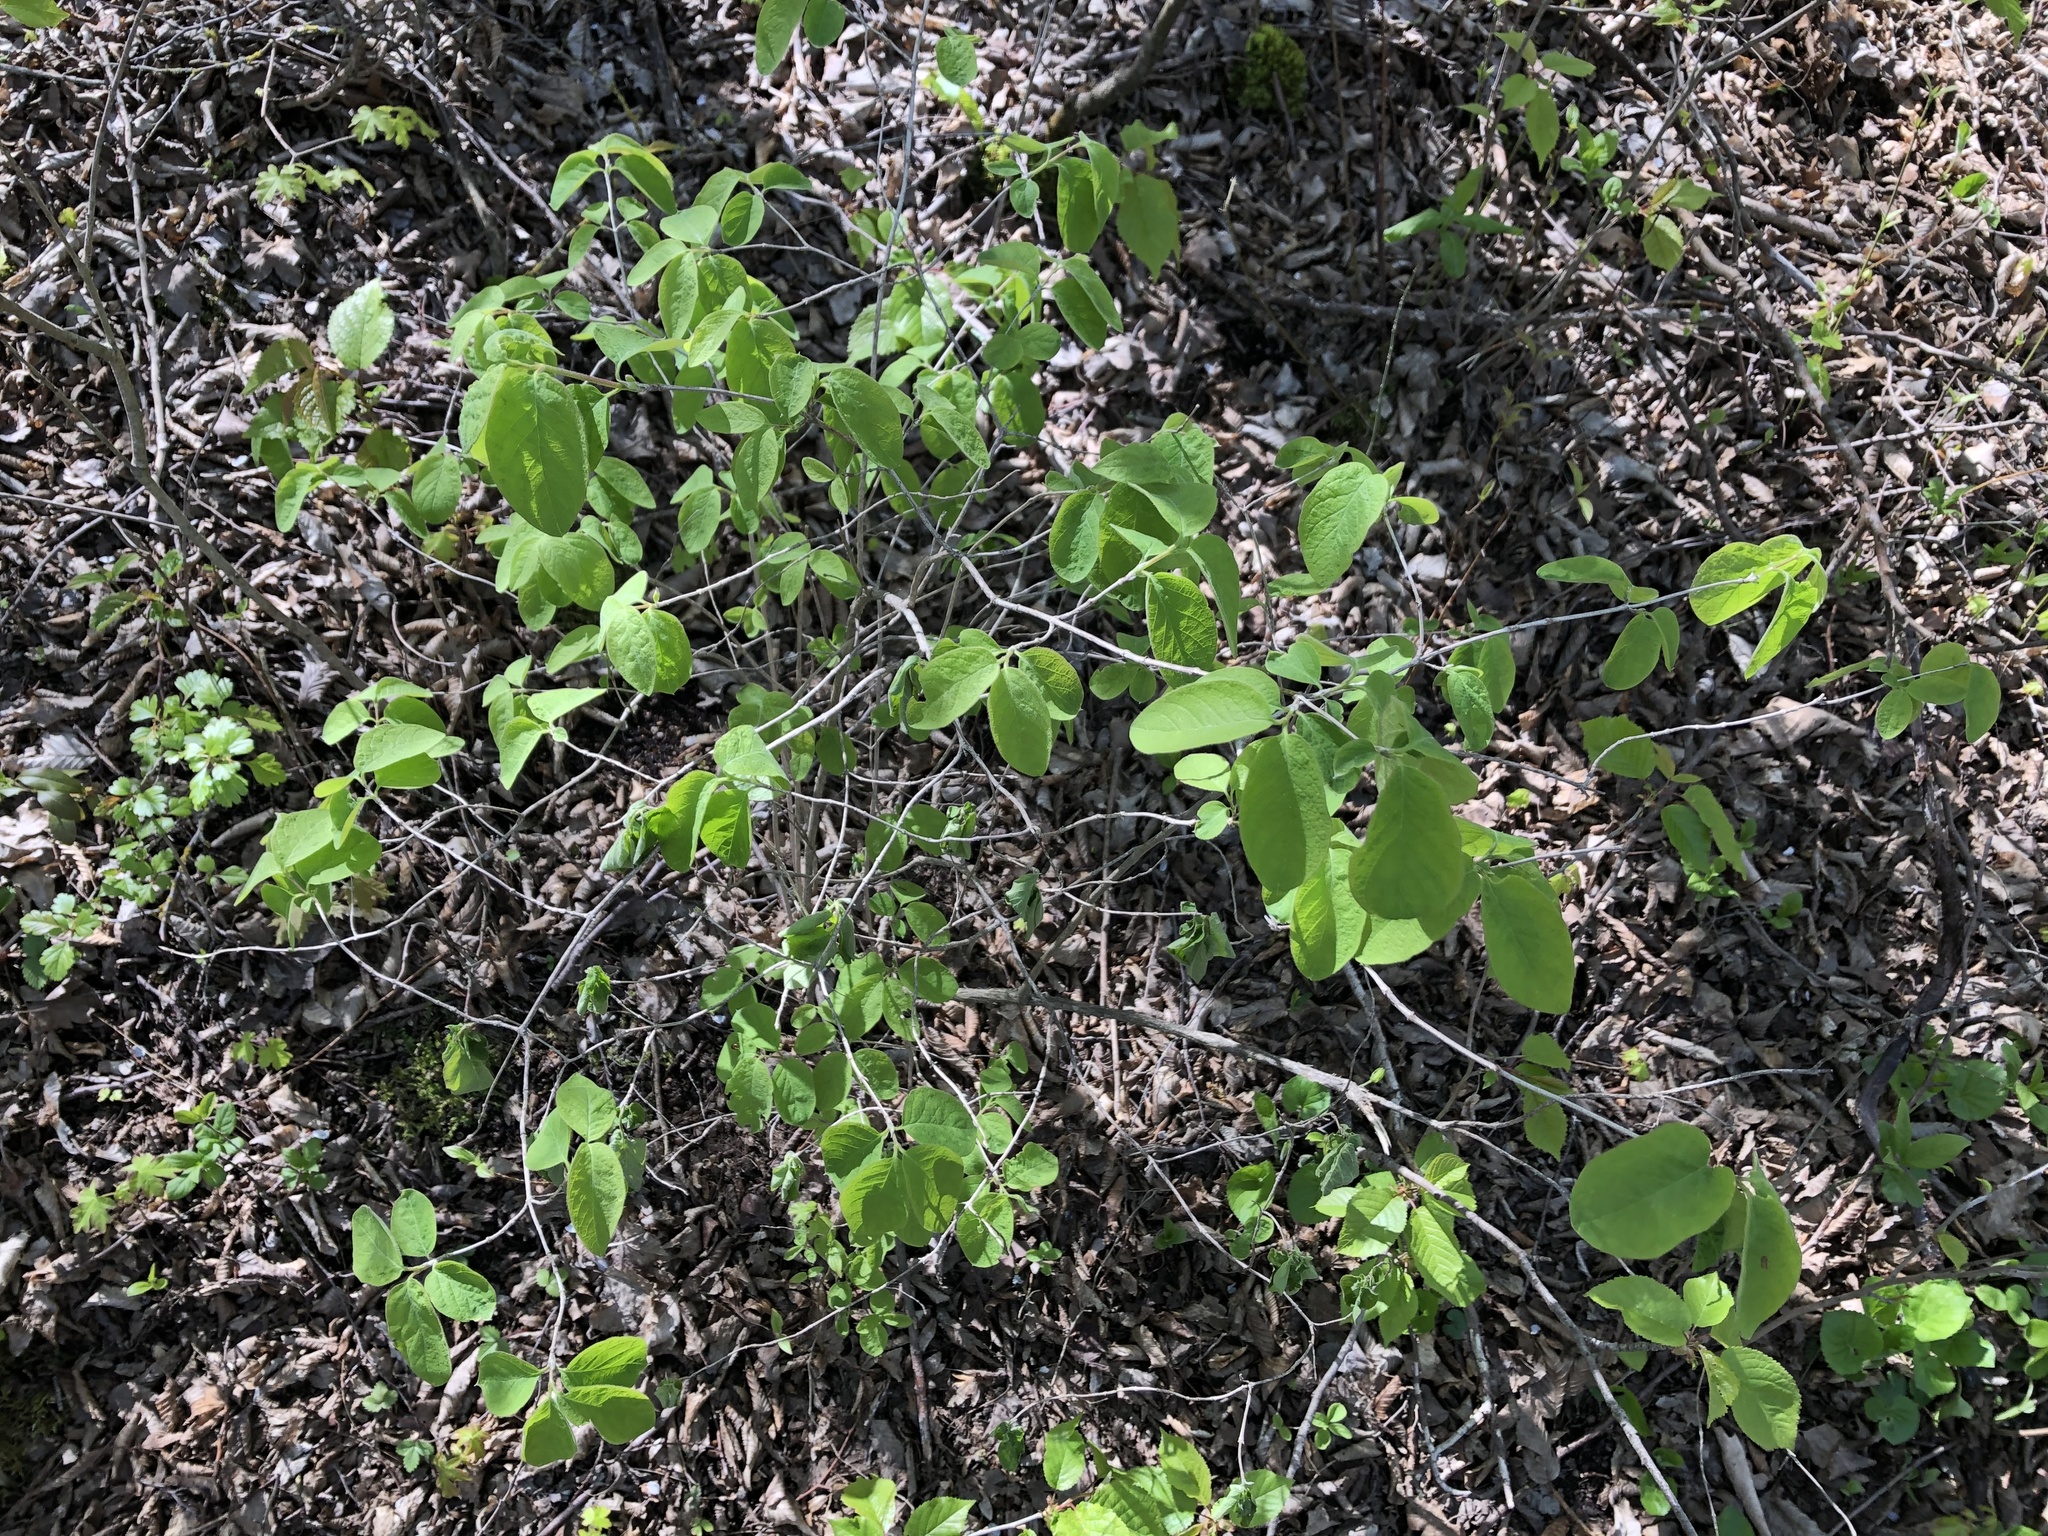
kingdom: Plantae
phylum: Tracheophyta
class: Magnoliopsida
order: Dipsacales
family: Caprifoliaceae
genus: Lonicera
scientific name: Lonicera xylosteum
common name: Fly honeysuckle
